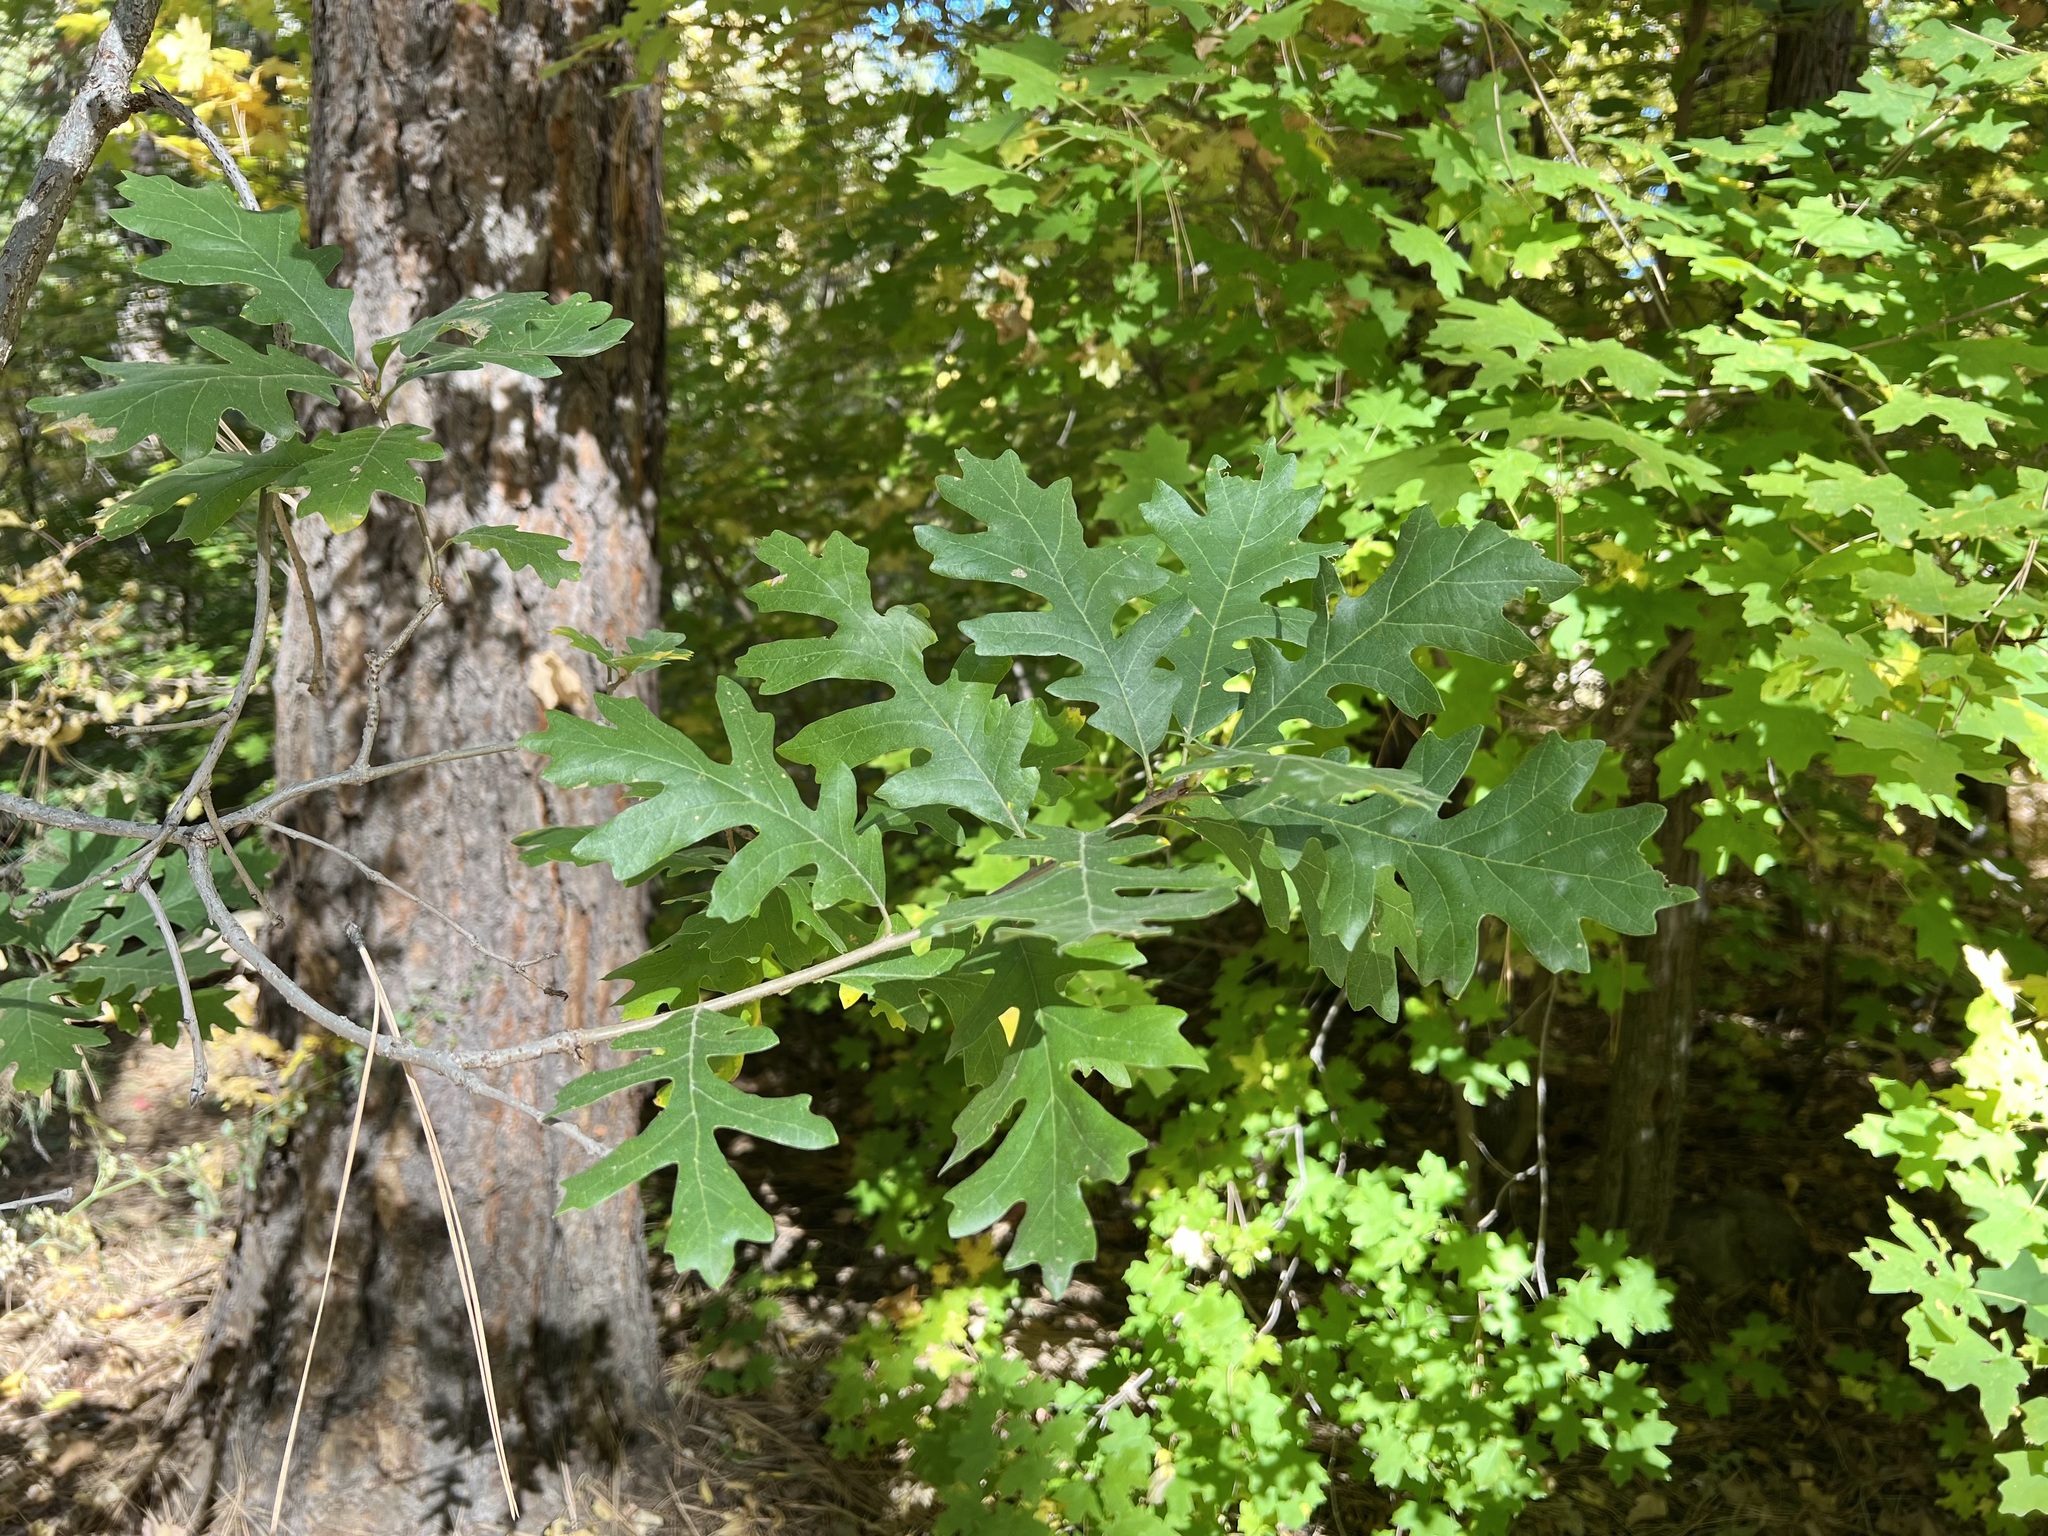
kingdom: Plantae
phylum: Tracheophyta
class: Magnoliopsida
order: Fagales
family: Fagaceae
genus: Quercus
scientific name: Quercus gambelii
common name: Gambel oak
